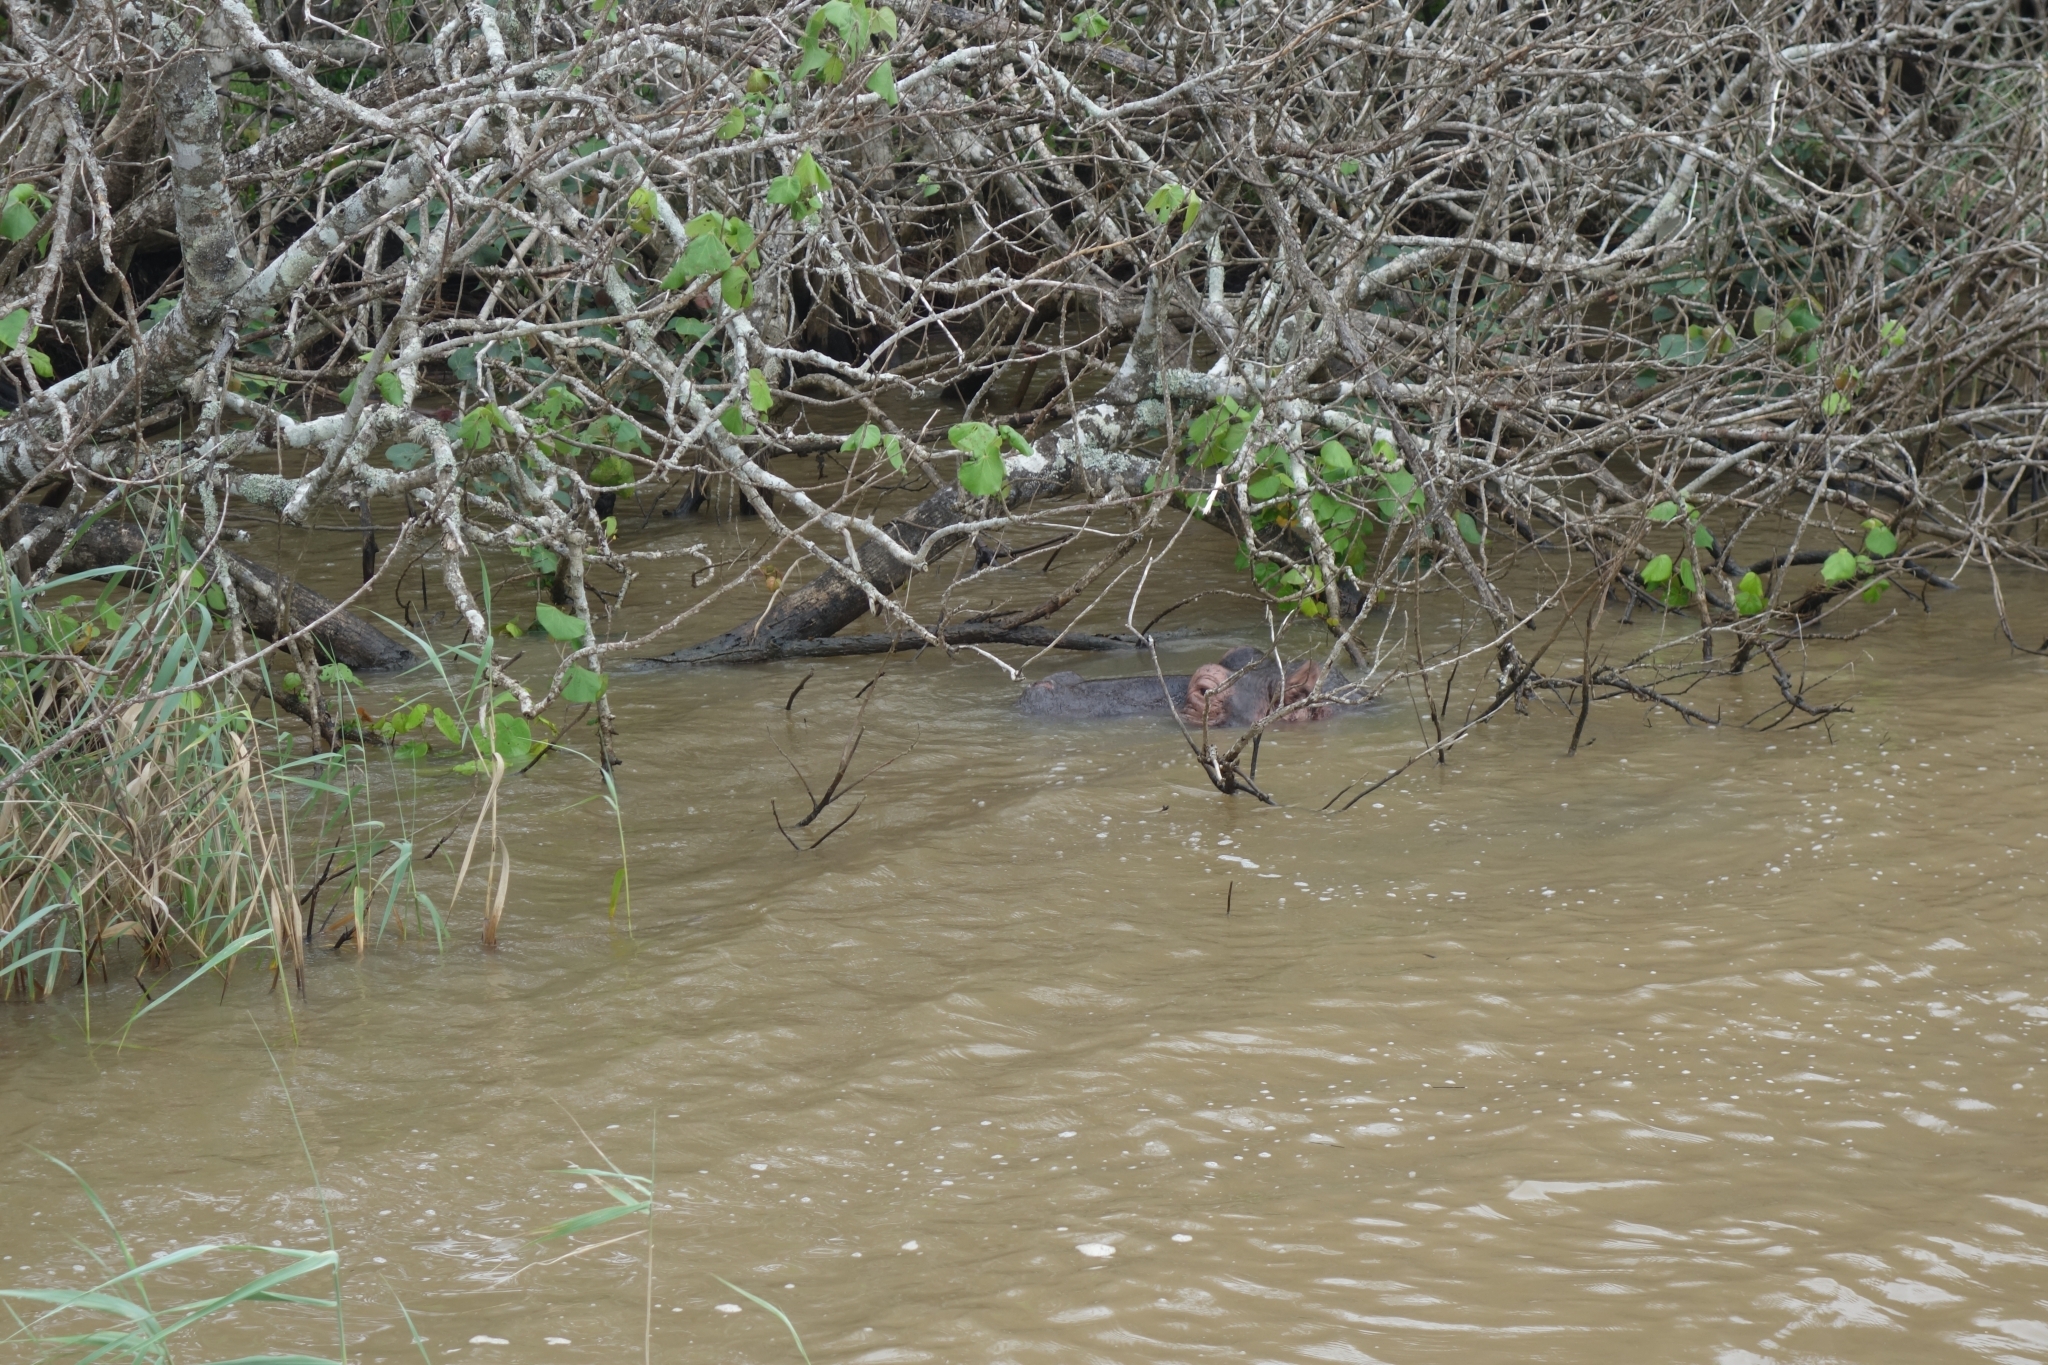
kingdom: Animalia
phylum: Chordata
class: Mammalia
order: Artiodactyla
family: Hippopotamidae
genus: Hippopotamus
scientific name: Hippopotamus amphibius
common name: Common hippopotamus
